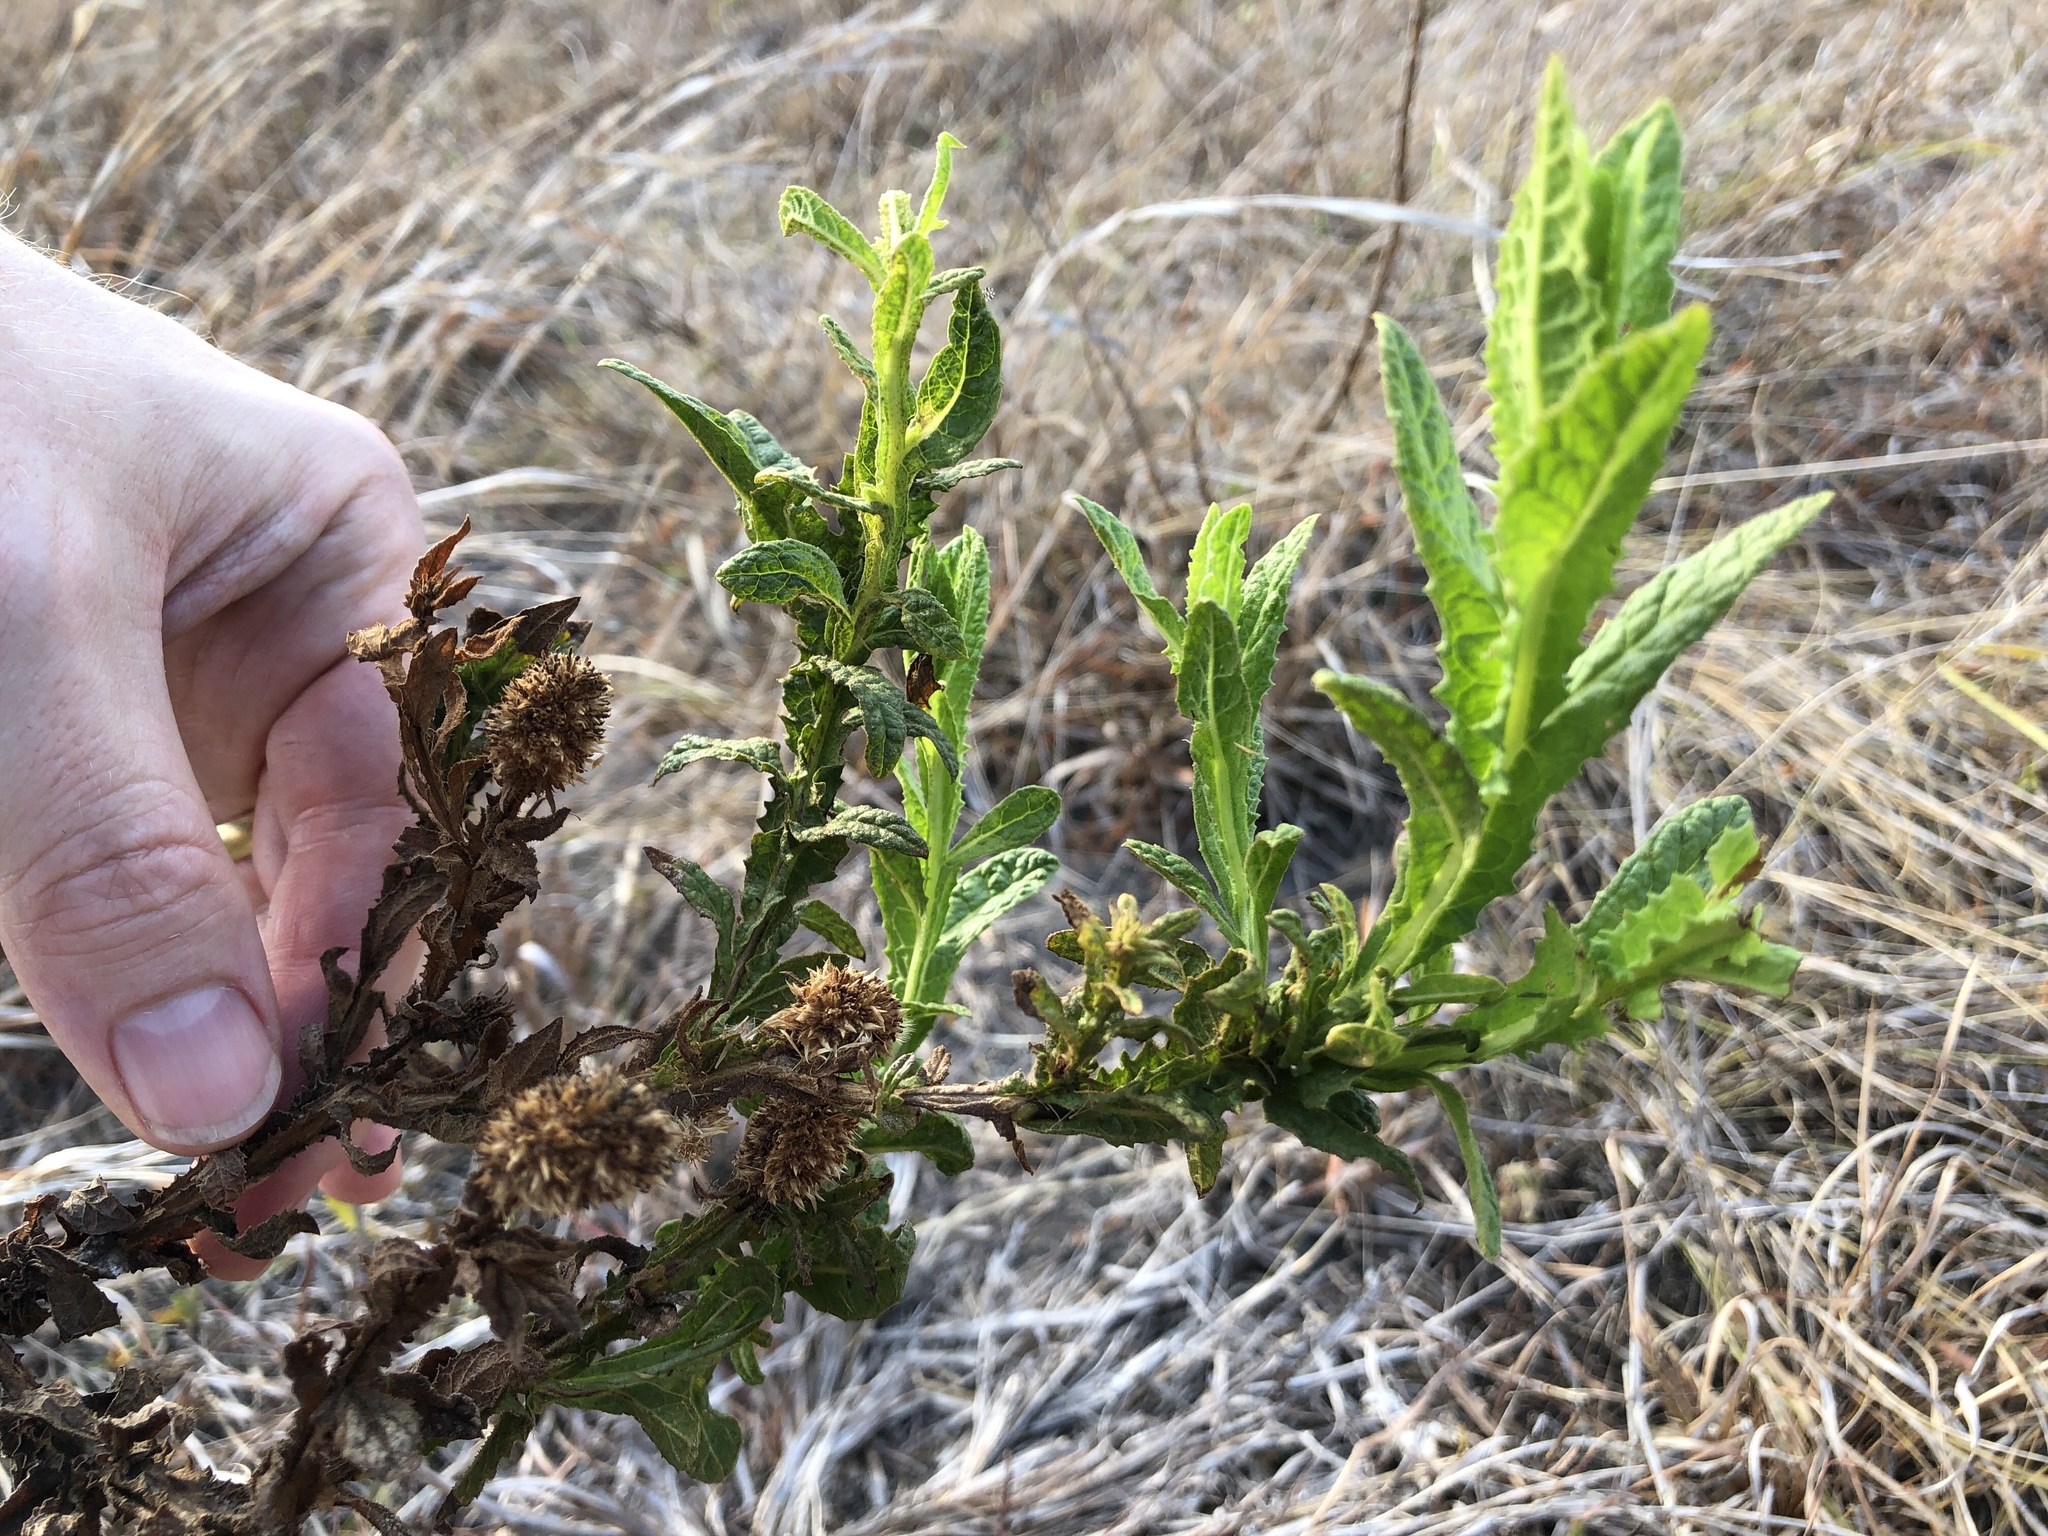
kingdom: Plantae
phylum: Tracheophyta
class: Magnoliopsida
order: Asterales
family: Asteraceae
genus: Pterocaulon
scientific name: Pterocaulon serrulatum
